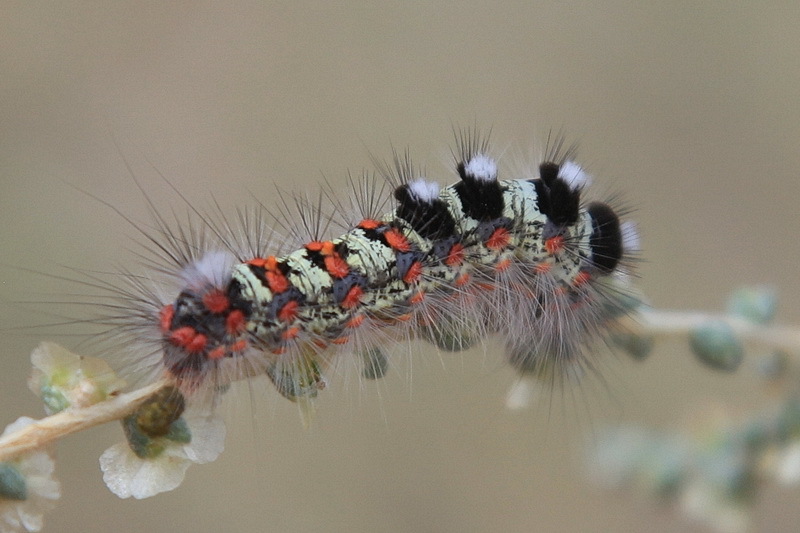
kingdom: Animalia
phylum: Arthropoda
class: Insecta
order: Lepidoptera
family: Erebidae
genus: Orgyia
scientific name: Orgyia dubia
